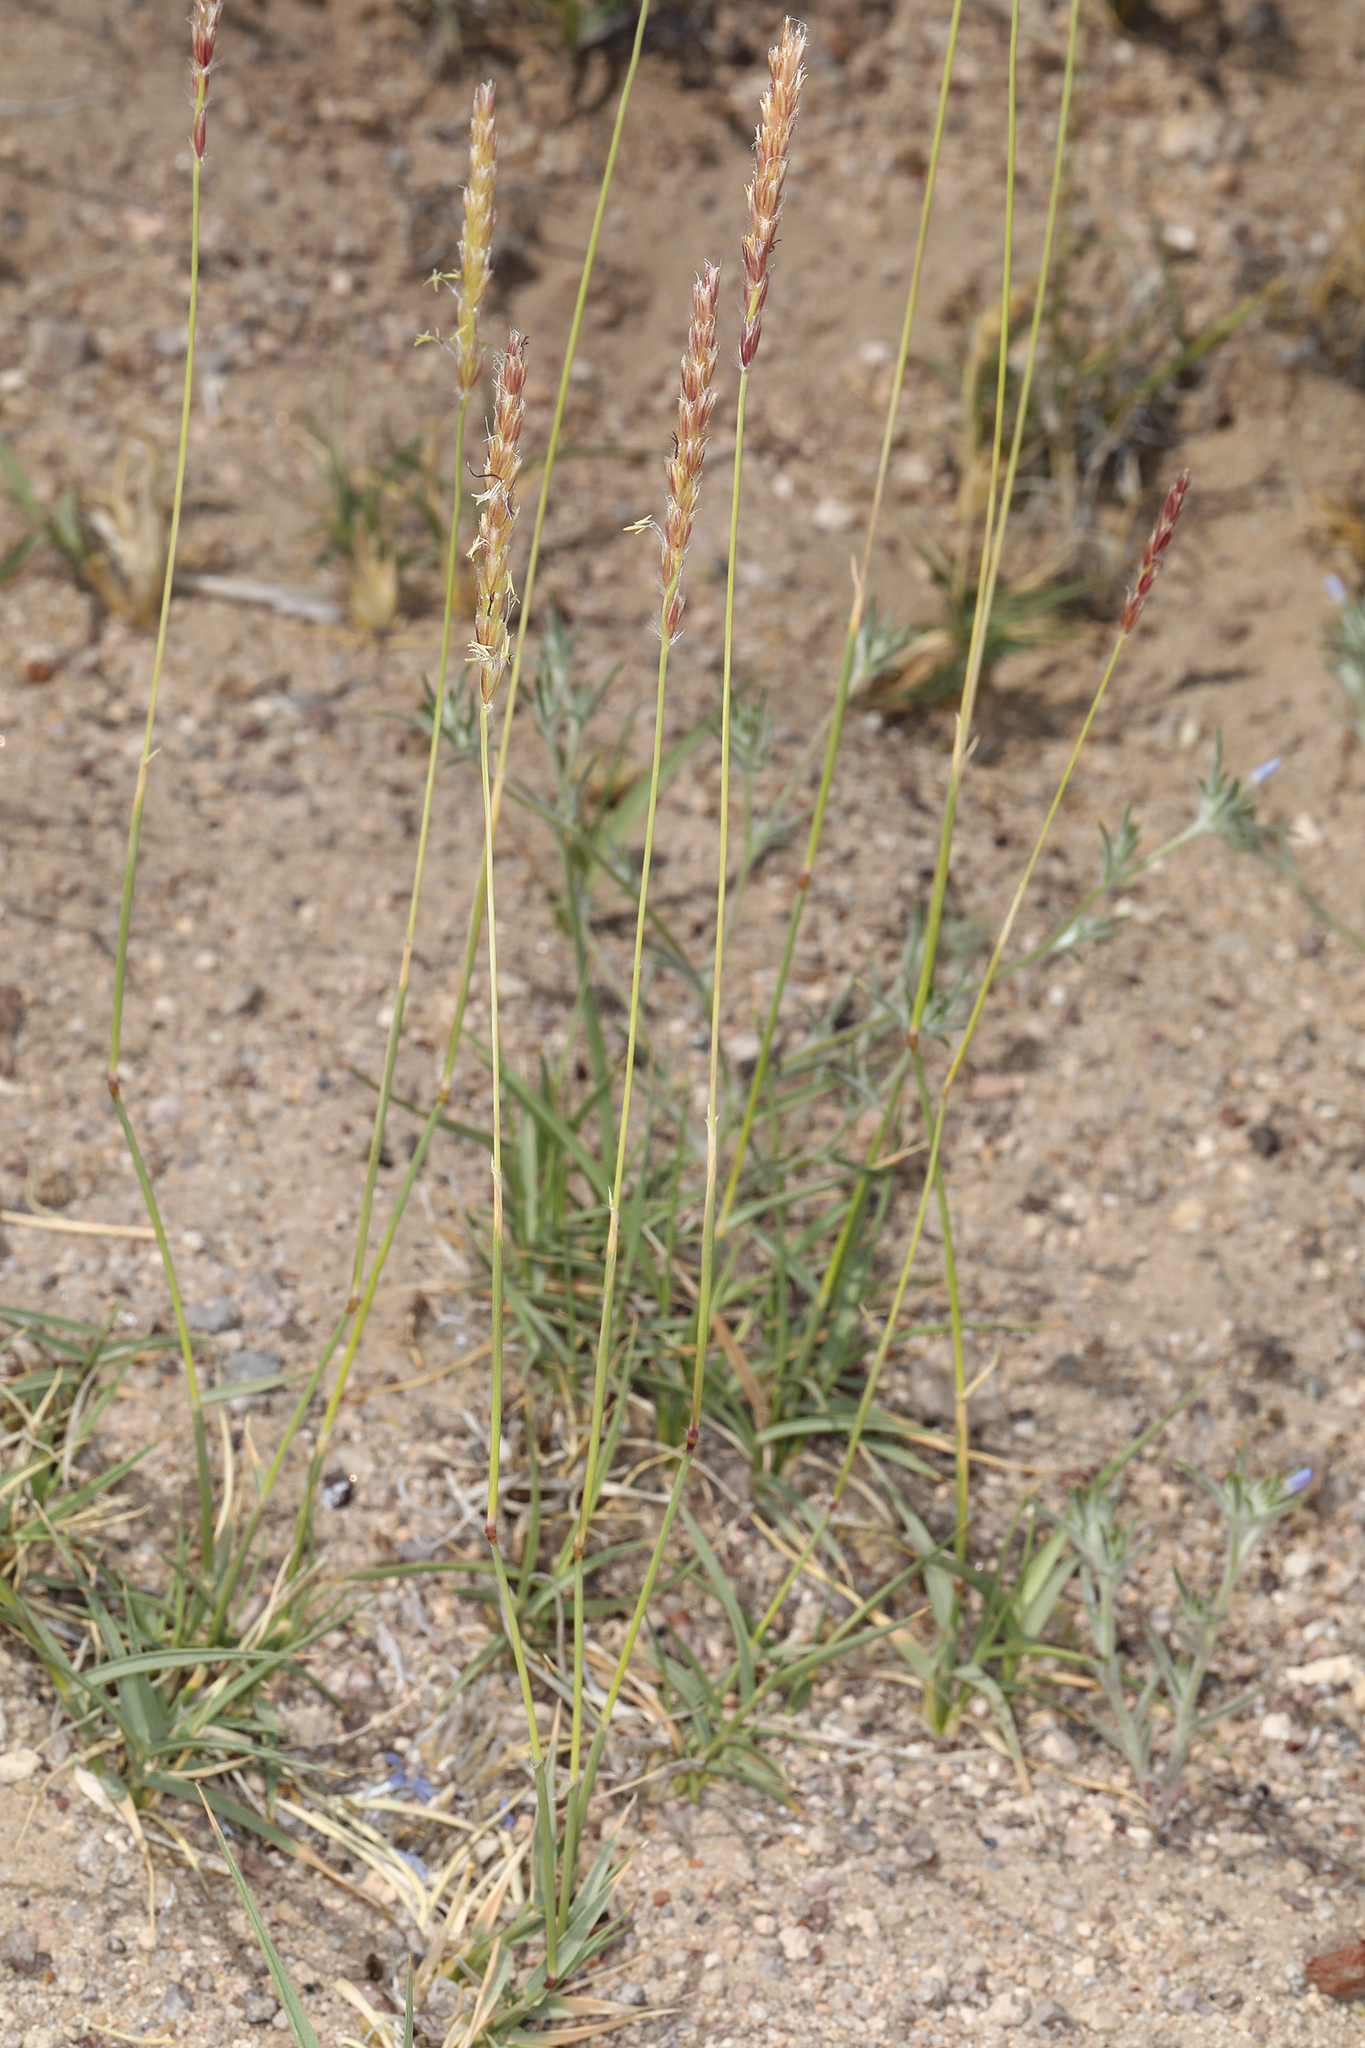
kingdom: Plantae
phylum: Tracheophyta
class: Liliopsida
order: Poales
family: Poaceae
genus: Hilaria
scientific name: Hilaria jamesii
